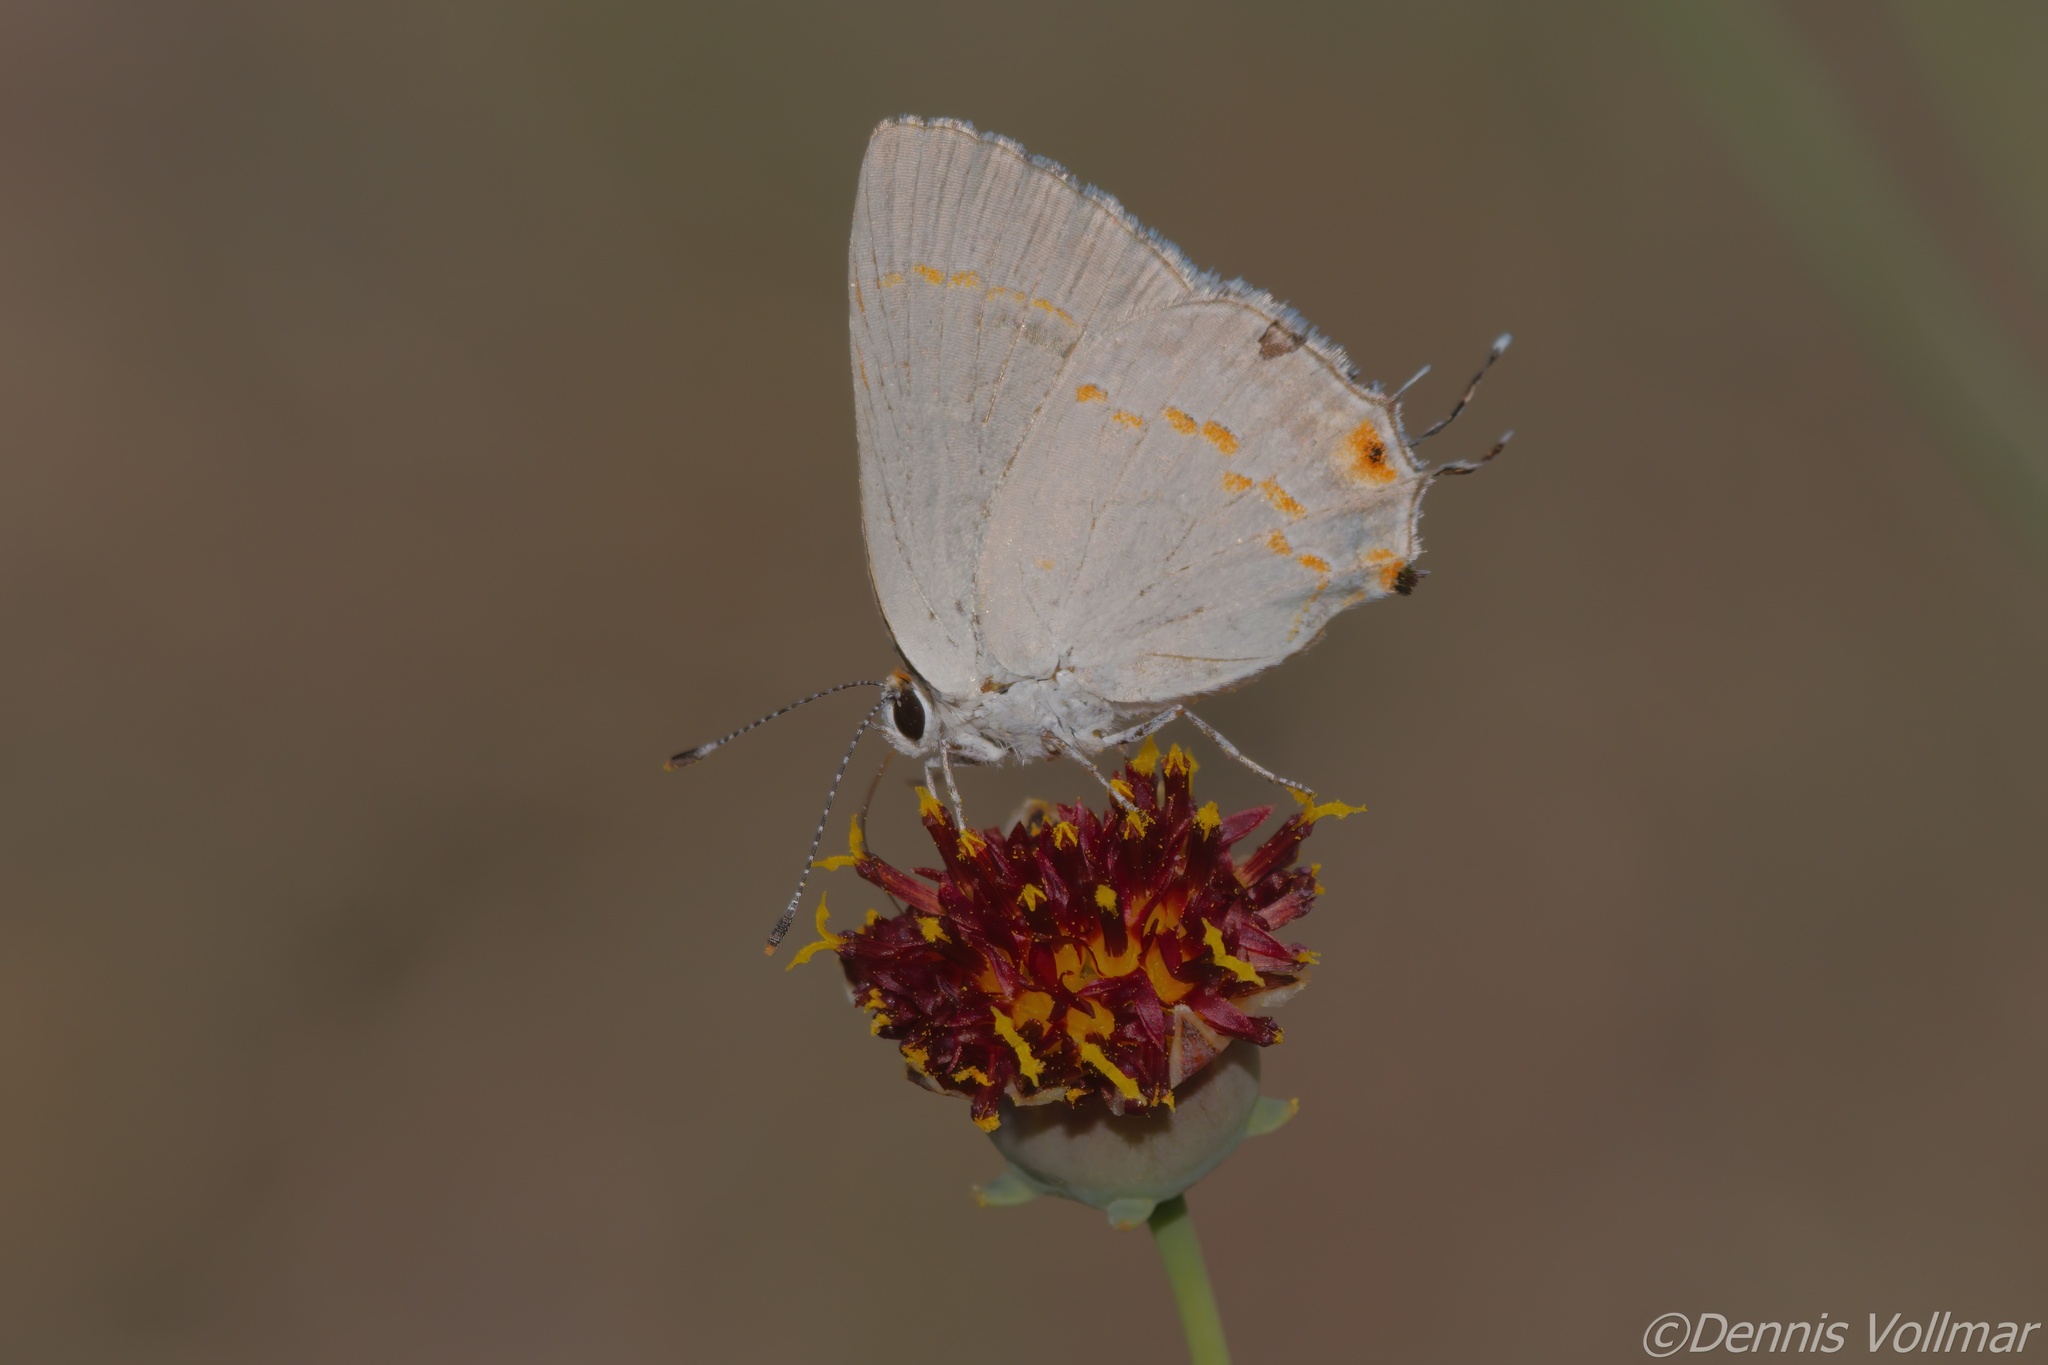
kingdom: Animalia
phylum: Arthropoda
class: Insecta
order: Lepidoptera
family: Lycaenidae
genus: Strymon
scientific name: Strymon
